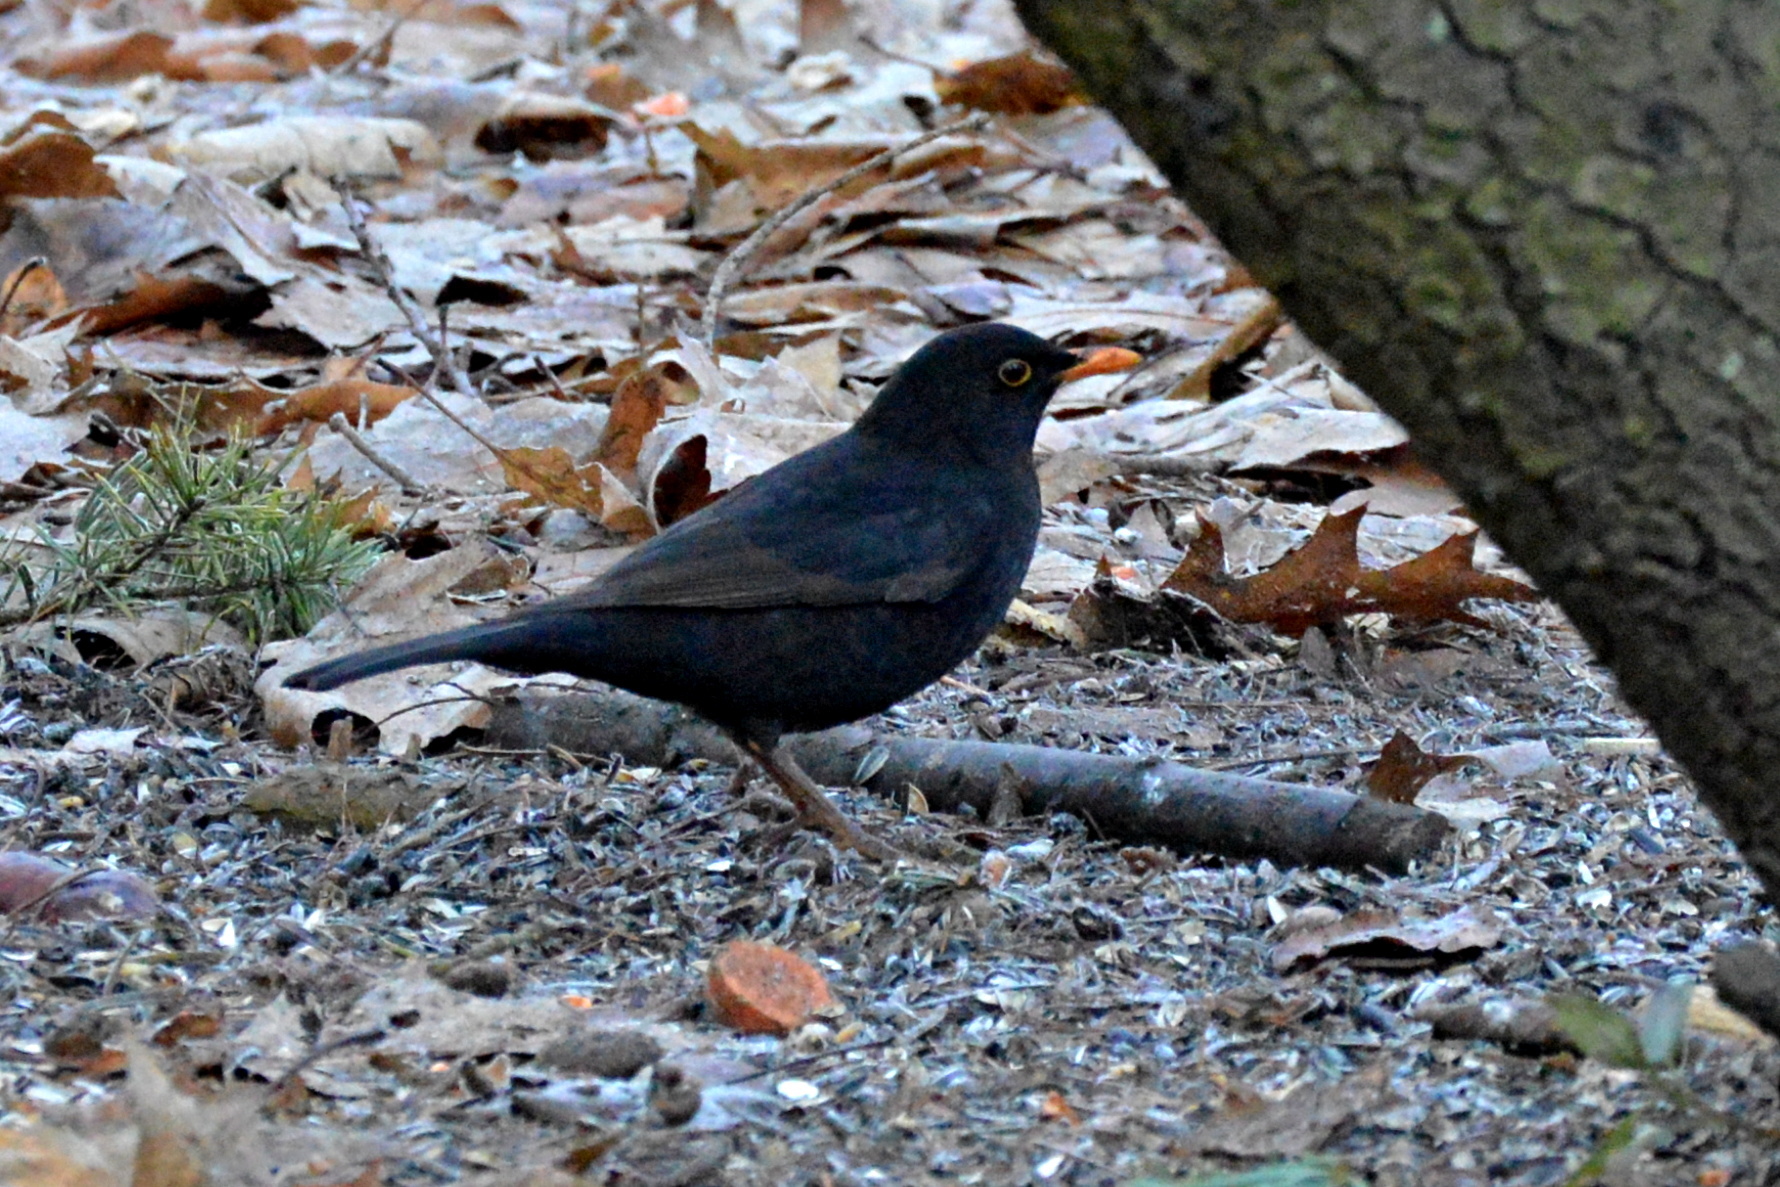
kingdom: Animalia
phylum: Chordata
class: Aves
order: Passeriformes
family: Turdidae
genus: Turdus
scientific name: Turdus merula
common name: Common blackbird
